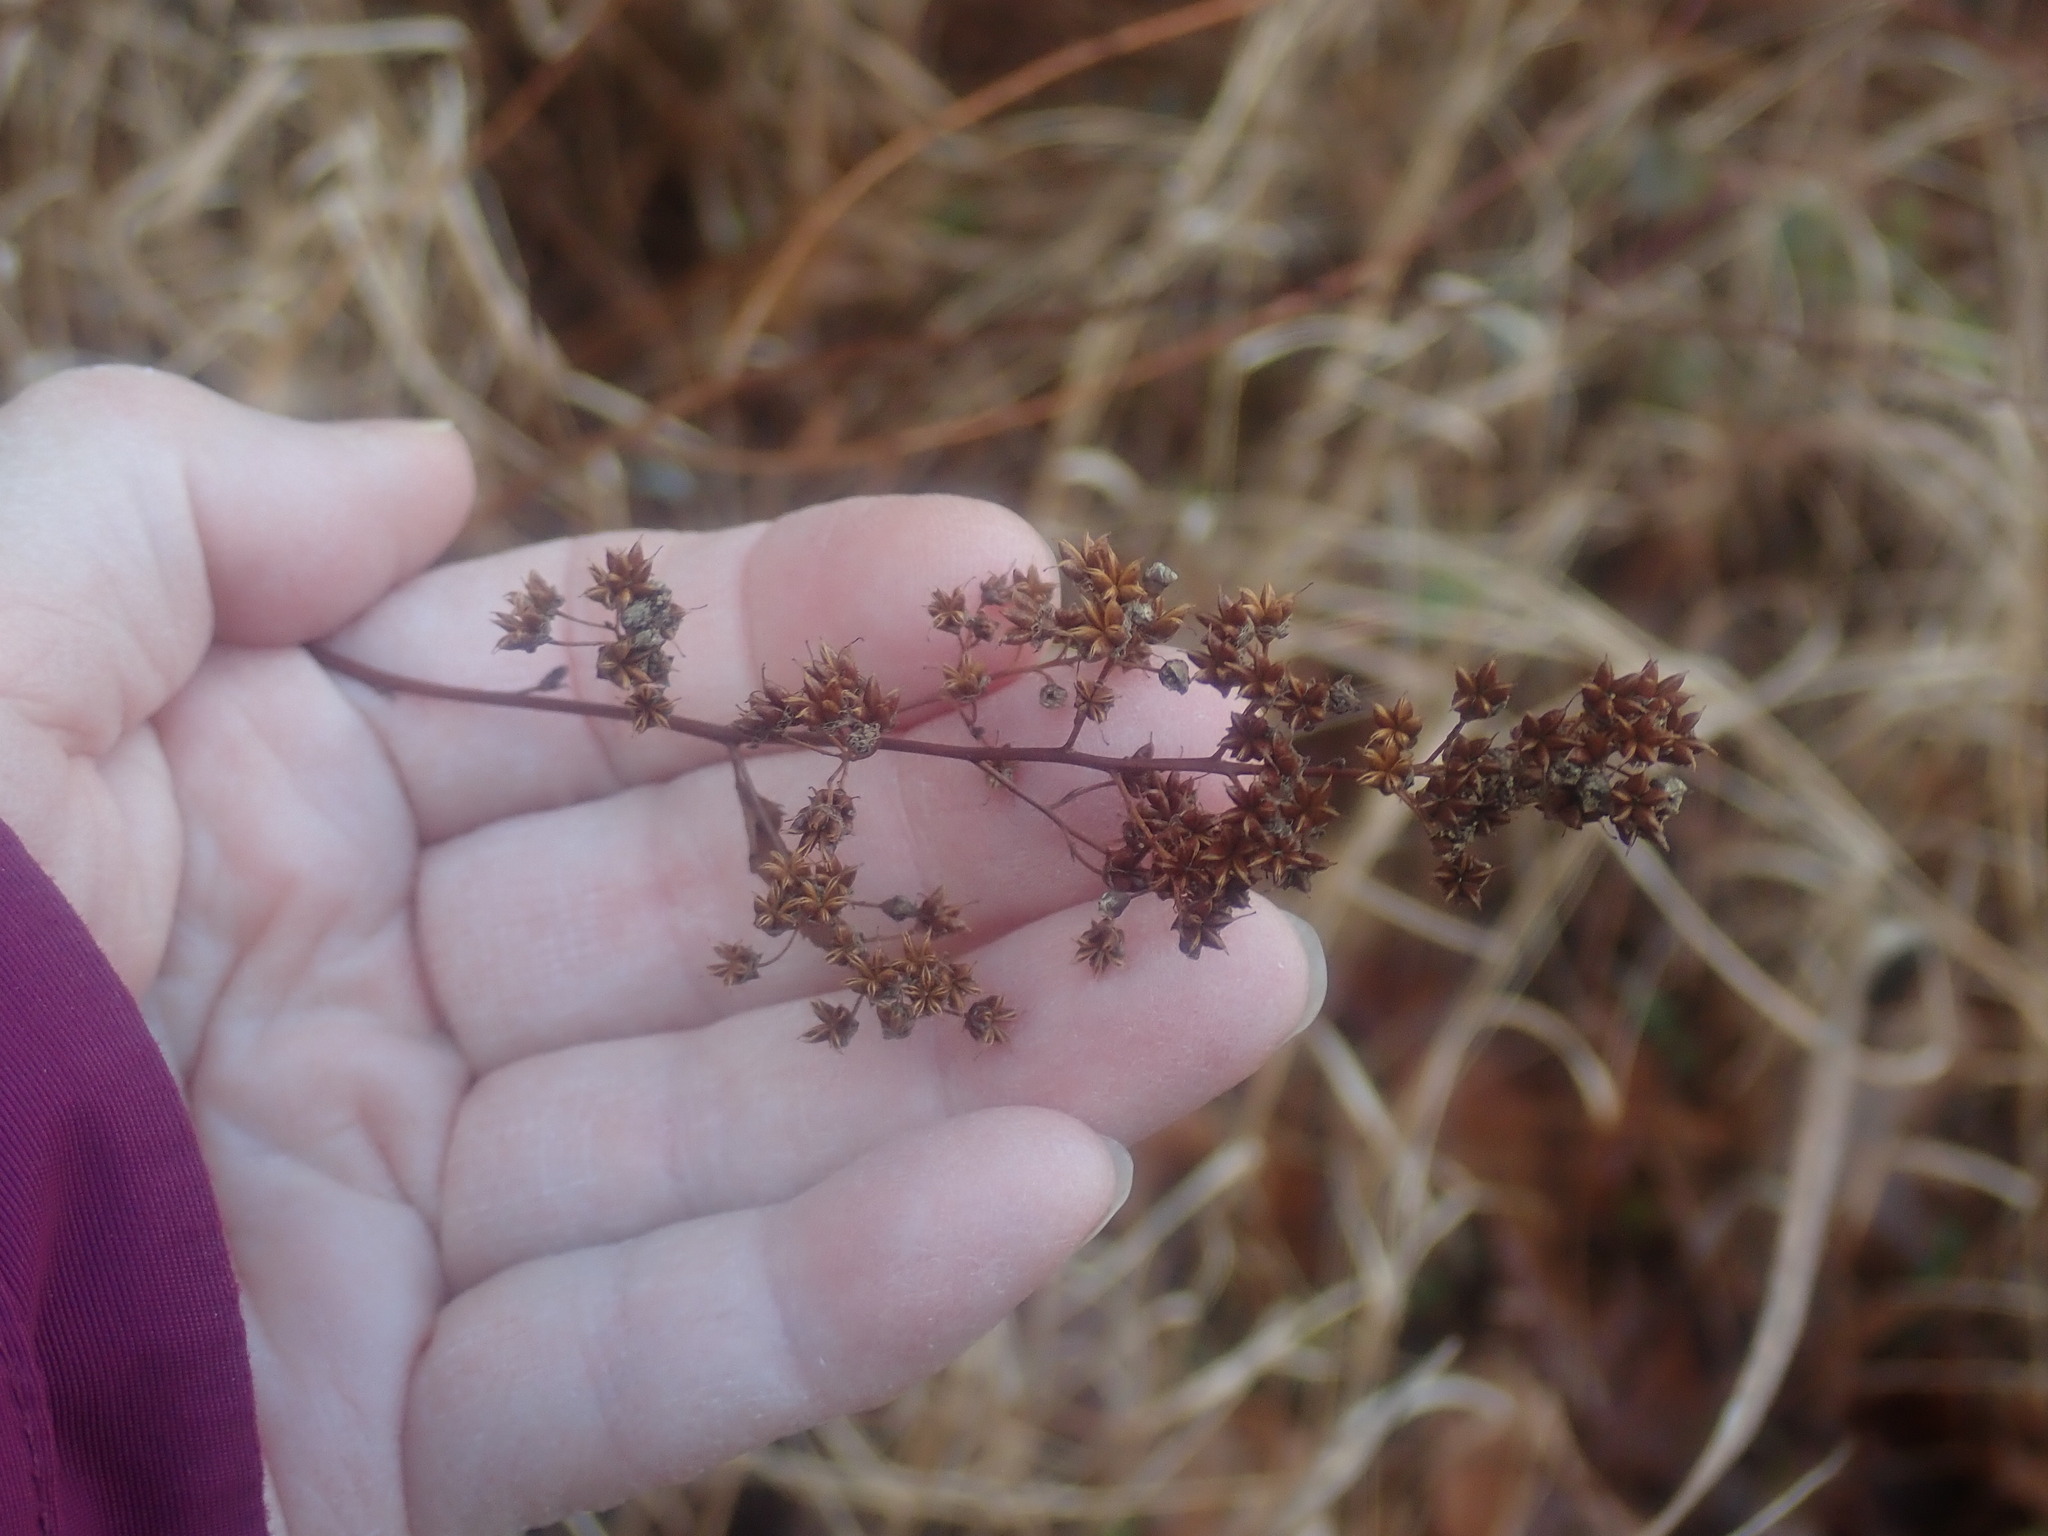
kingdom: Plantae
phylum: Tracheophyta
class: Magnoliopsida
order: Rosales
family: Rosaceae
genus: Spiraea
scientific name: Spiraea alba
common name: Pale bridewort
